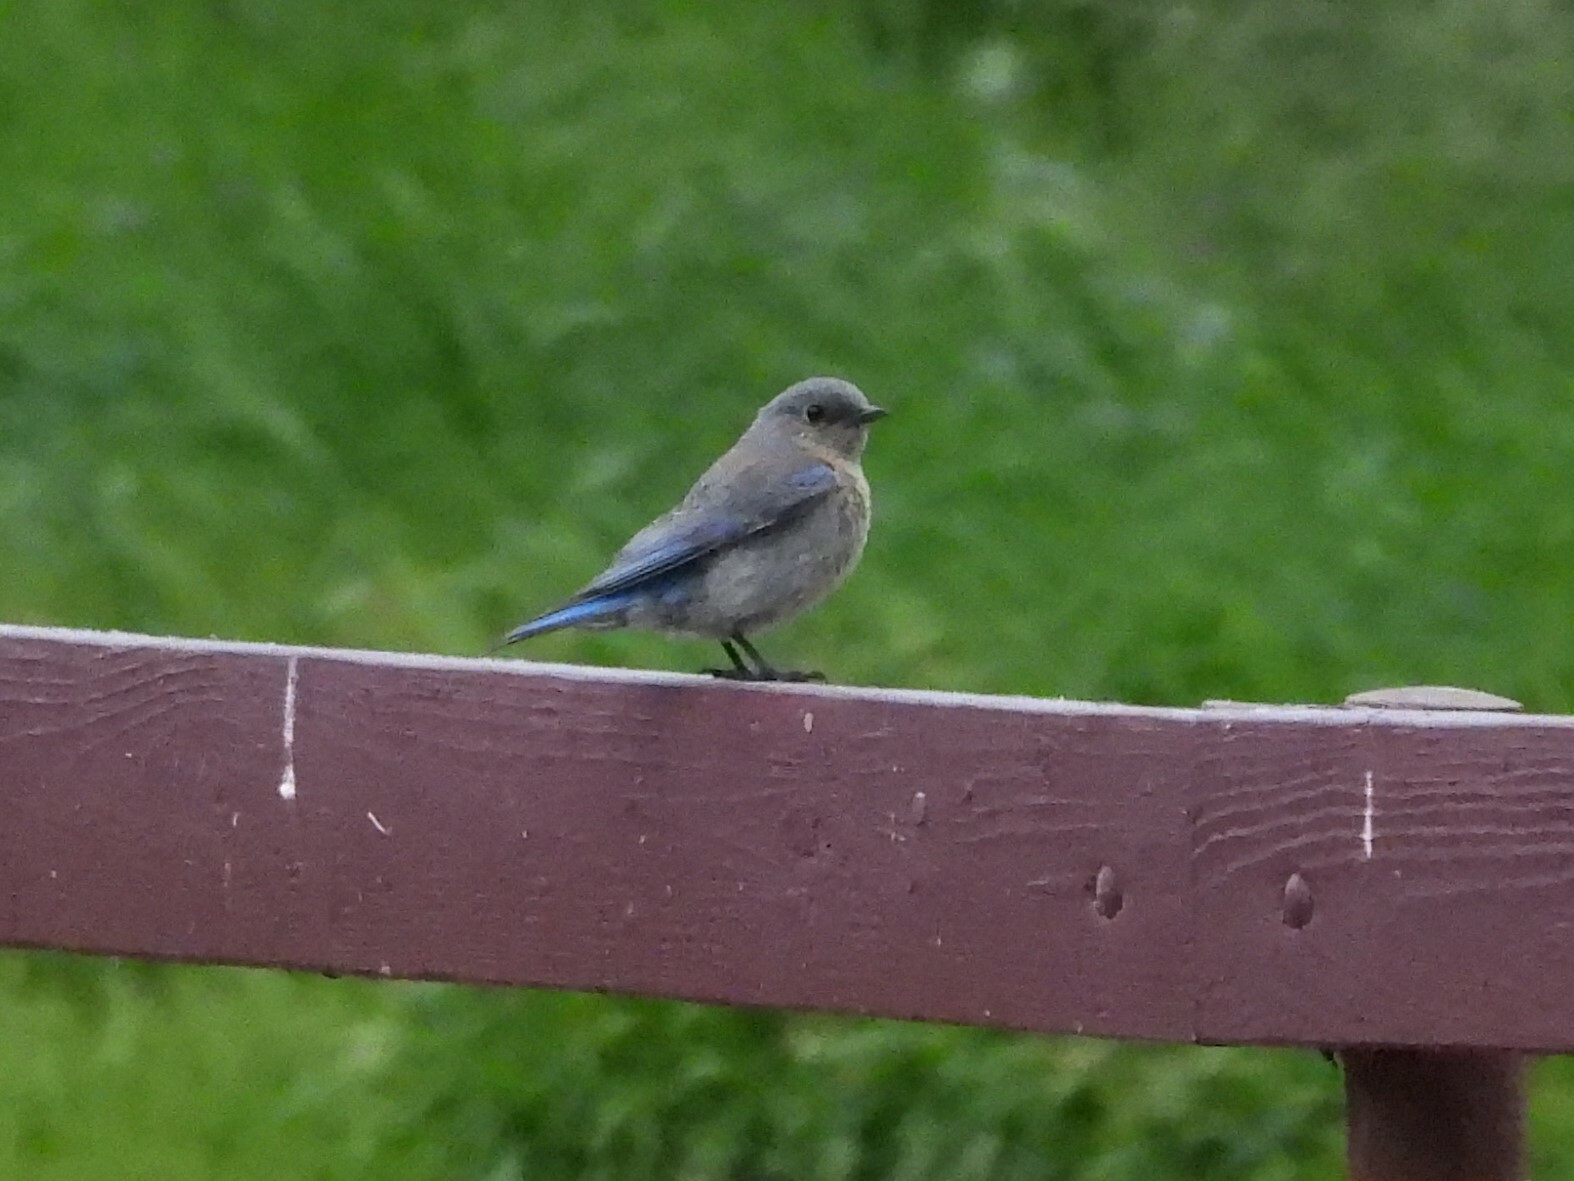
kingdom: Animalia
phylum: Chordata
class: Aves
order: Passeriformes
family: Turdidae
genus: Sialia
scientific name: Sialia mexicana
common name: Western bluebird
